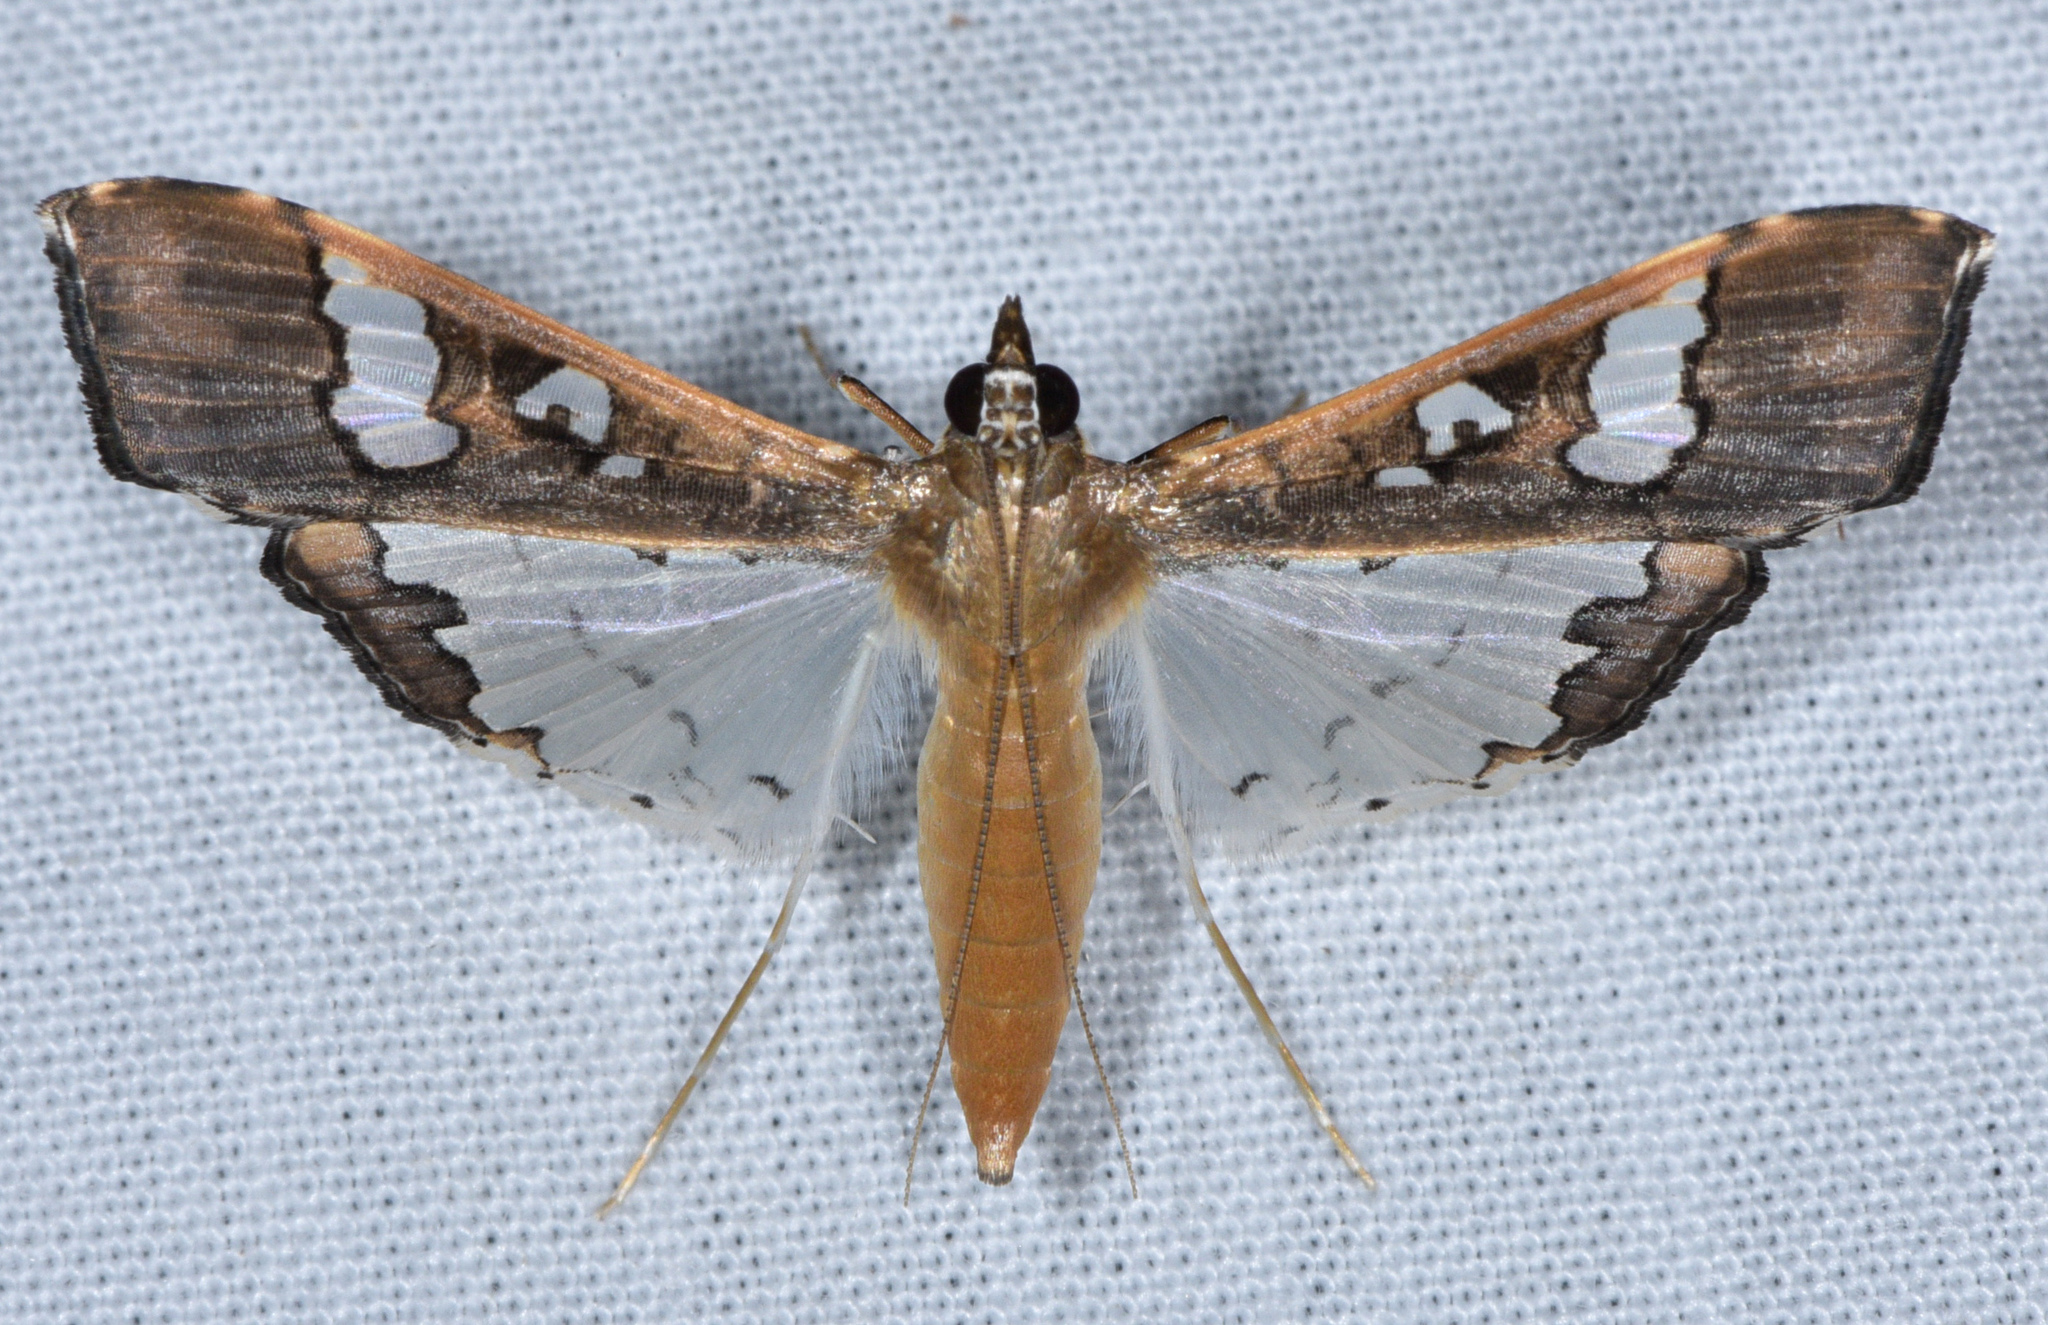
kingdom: Animalia
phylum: Arthropoda
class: Insecta
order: Lepidoptera
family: Crambidae
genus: Maruca
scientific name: Maruca vitrata
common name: Maruca pod borer
